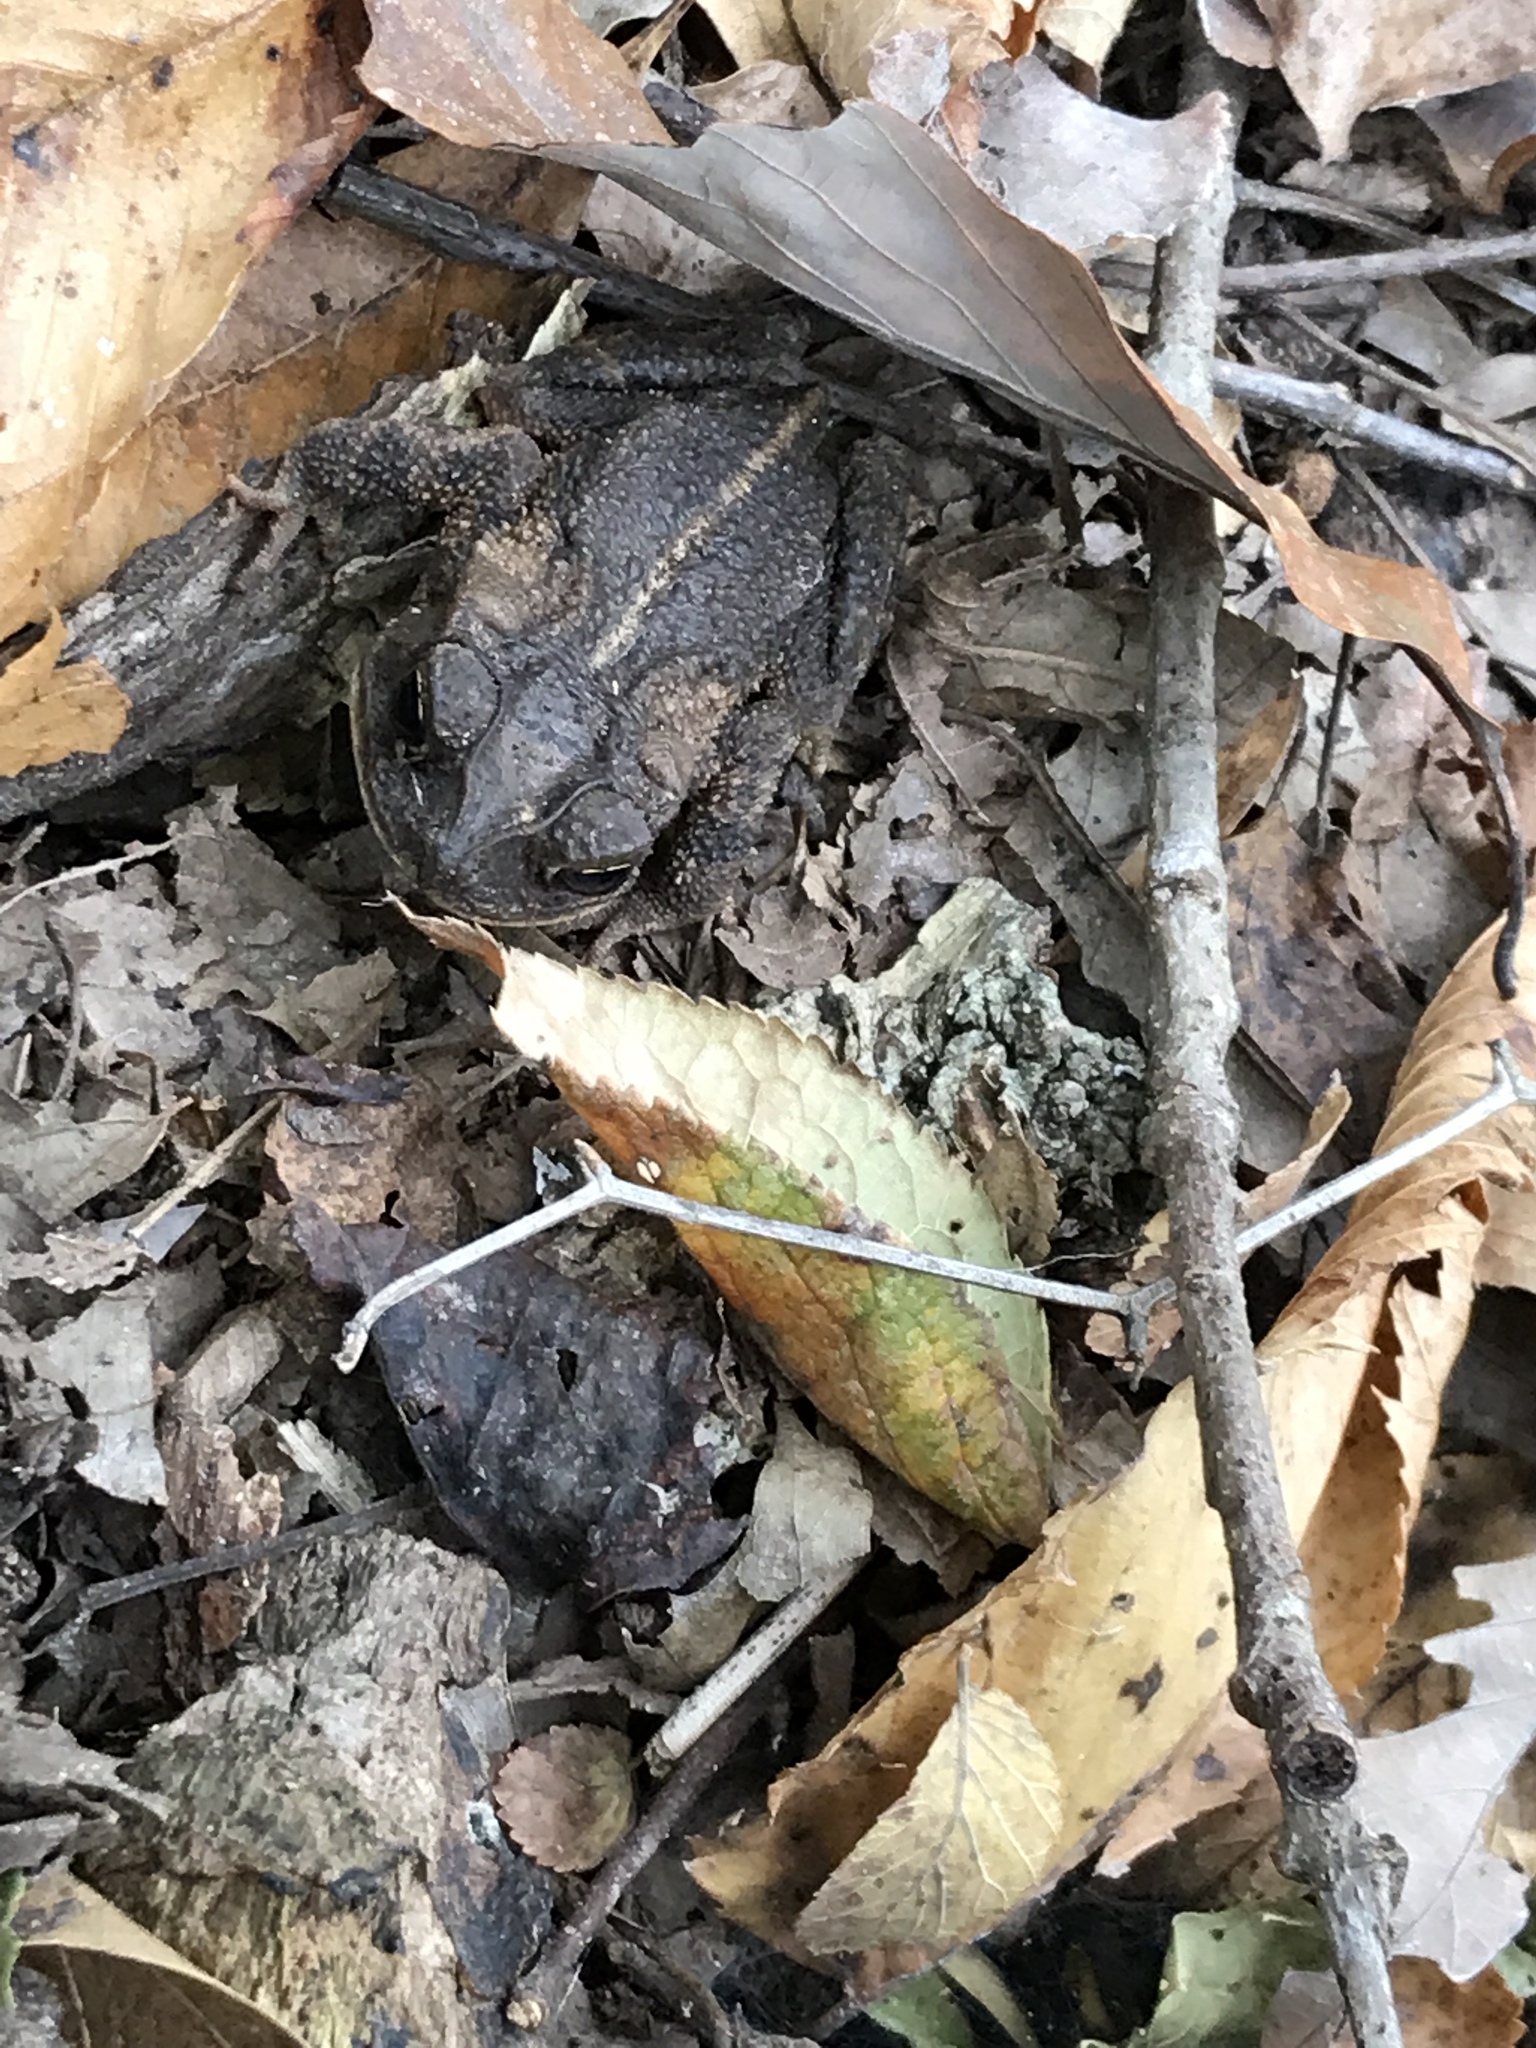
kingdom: Animalia
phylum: Chordata
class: Amphibia
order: Anura
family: Bufonidae
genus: Incilius
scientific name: Incilius nebulifer
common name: Gulf coast toad
